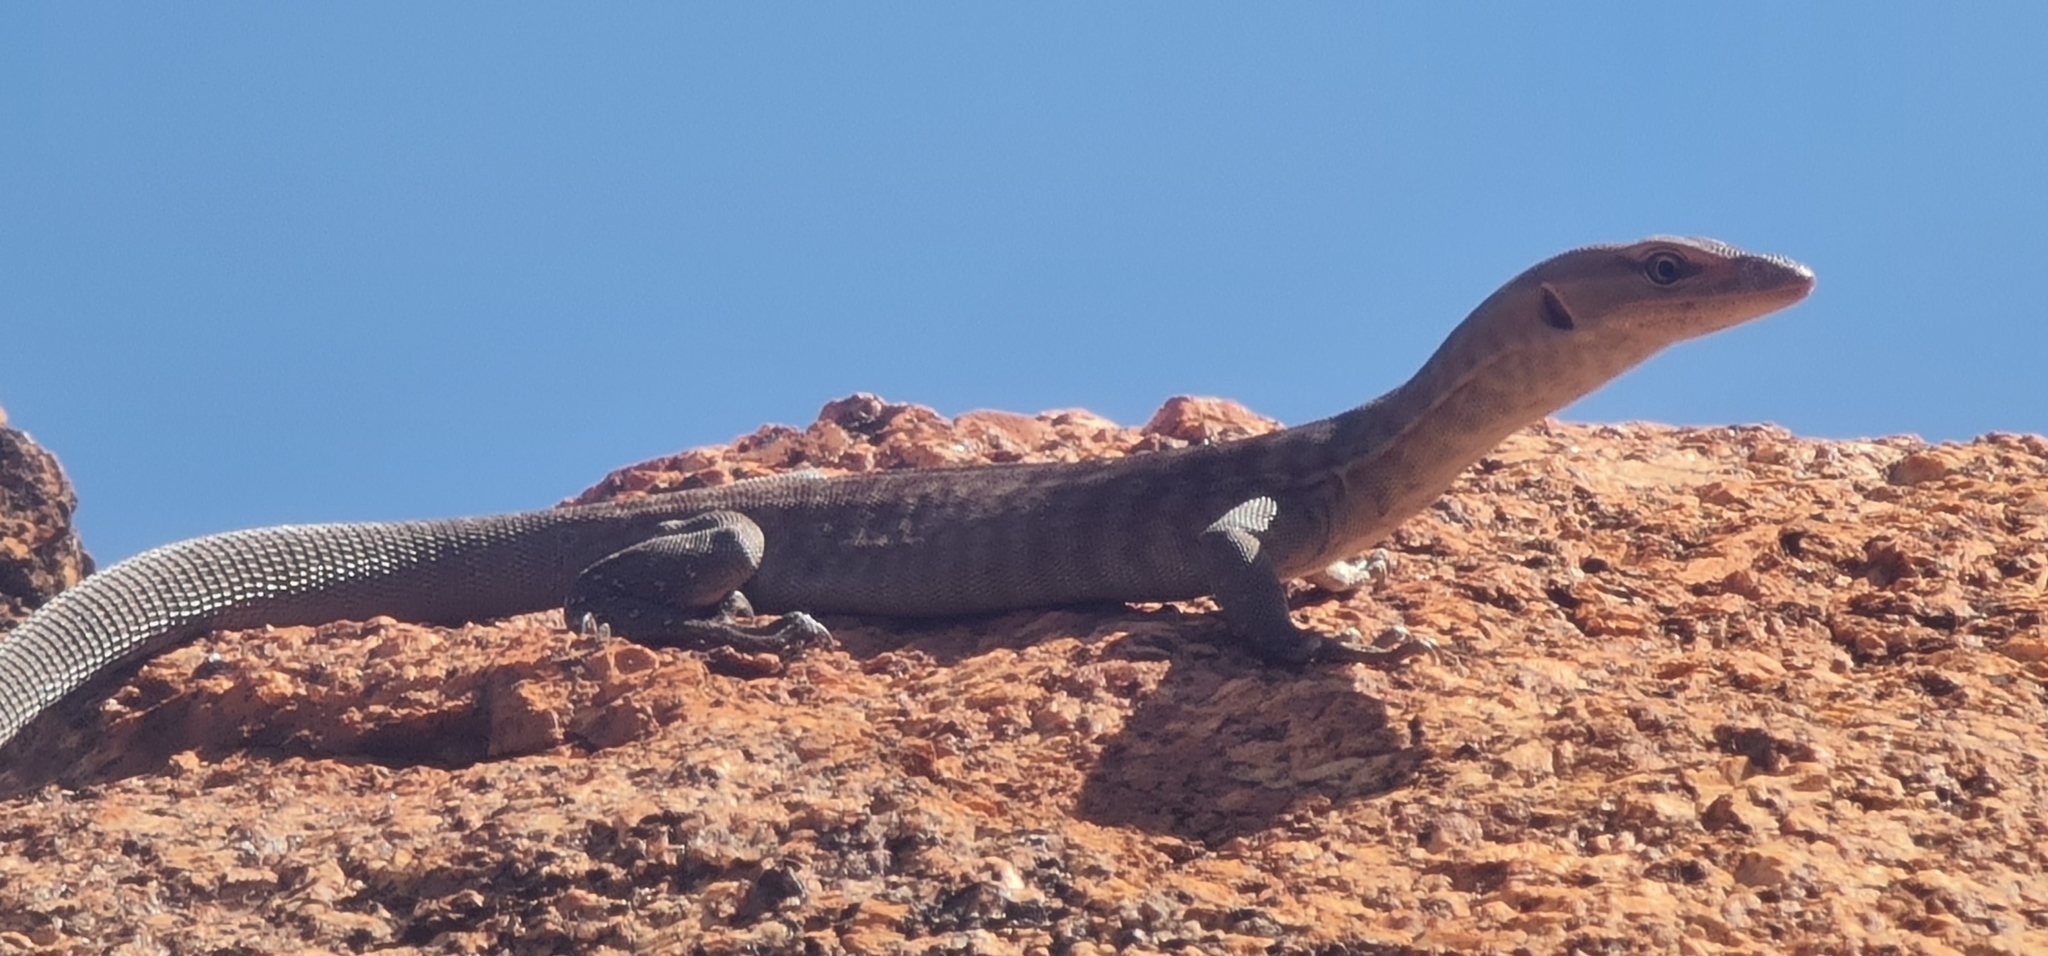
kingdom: Animalia
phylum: Chordata
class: Squamata
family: Varanidae
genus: Varanus
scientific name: Varanus tristis
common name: Arid monitor
